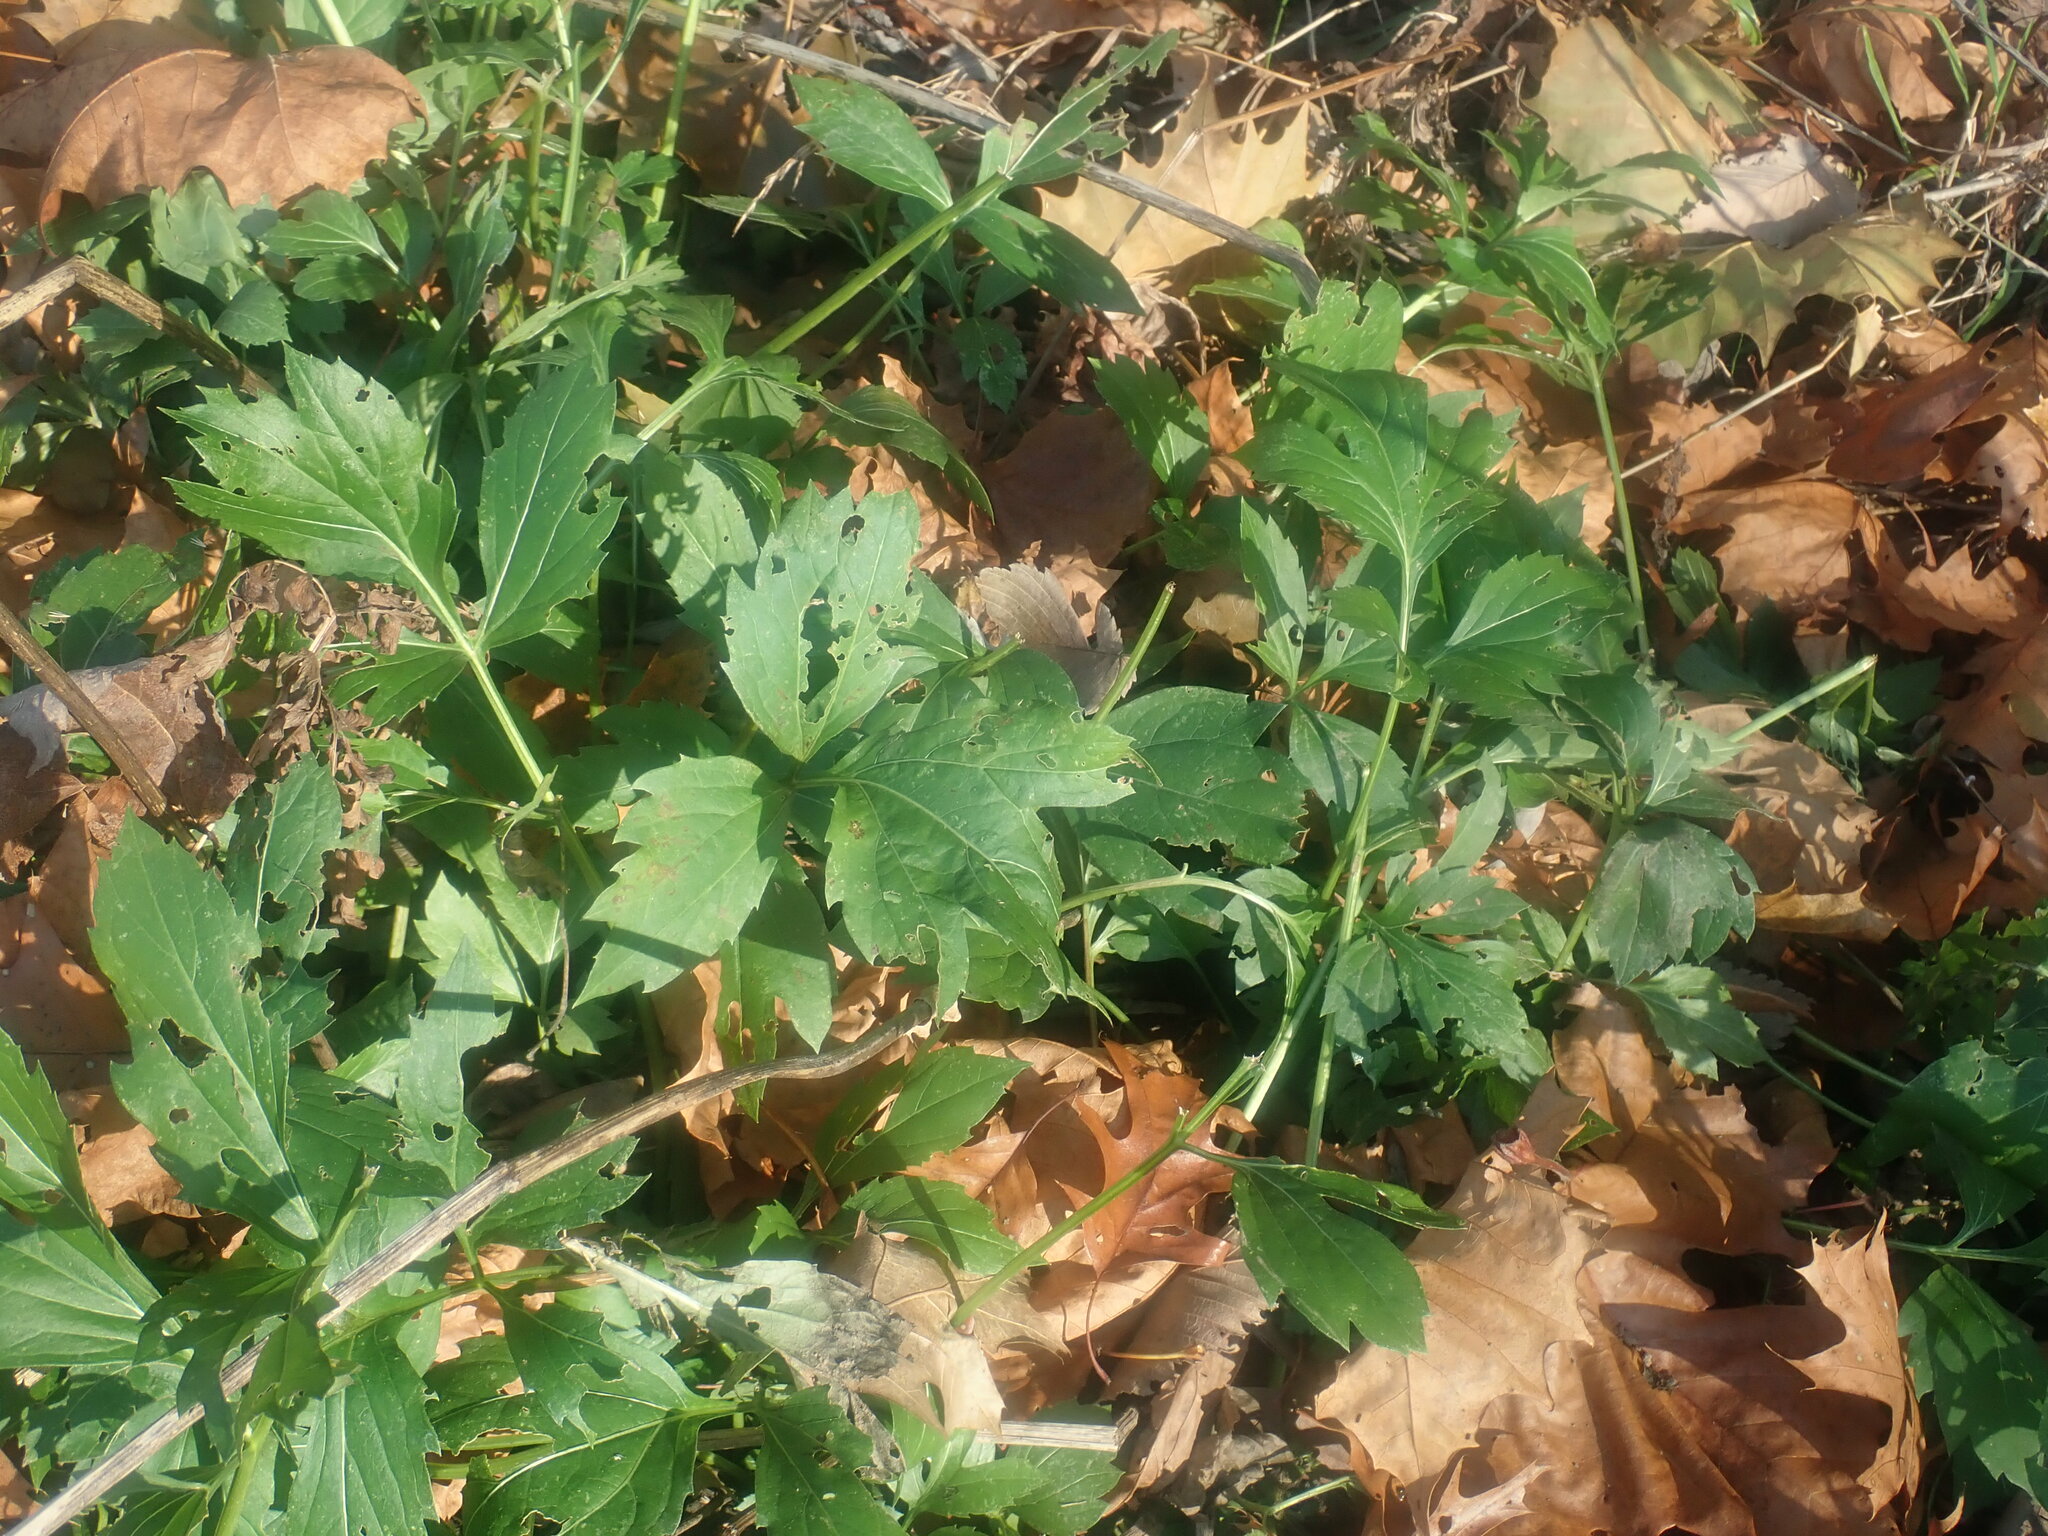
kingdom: Plantae
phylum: Tracheophyta
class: Magnoliopsida
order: Asterales
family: Asteraceae
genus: Rudbeckia
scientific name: Rudbeckia laciniata
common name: Coneflower
